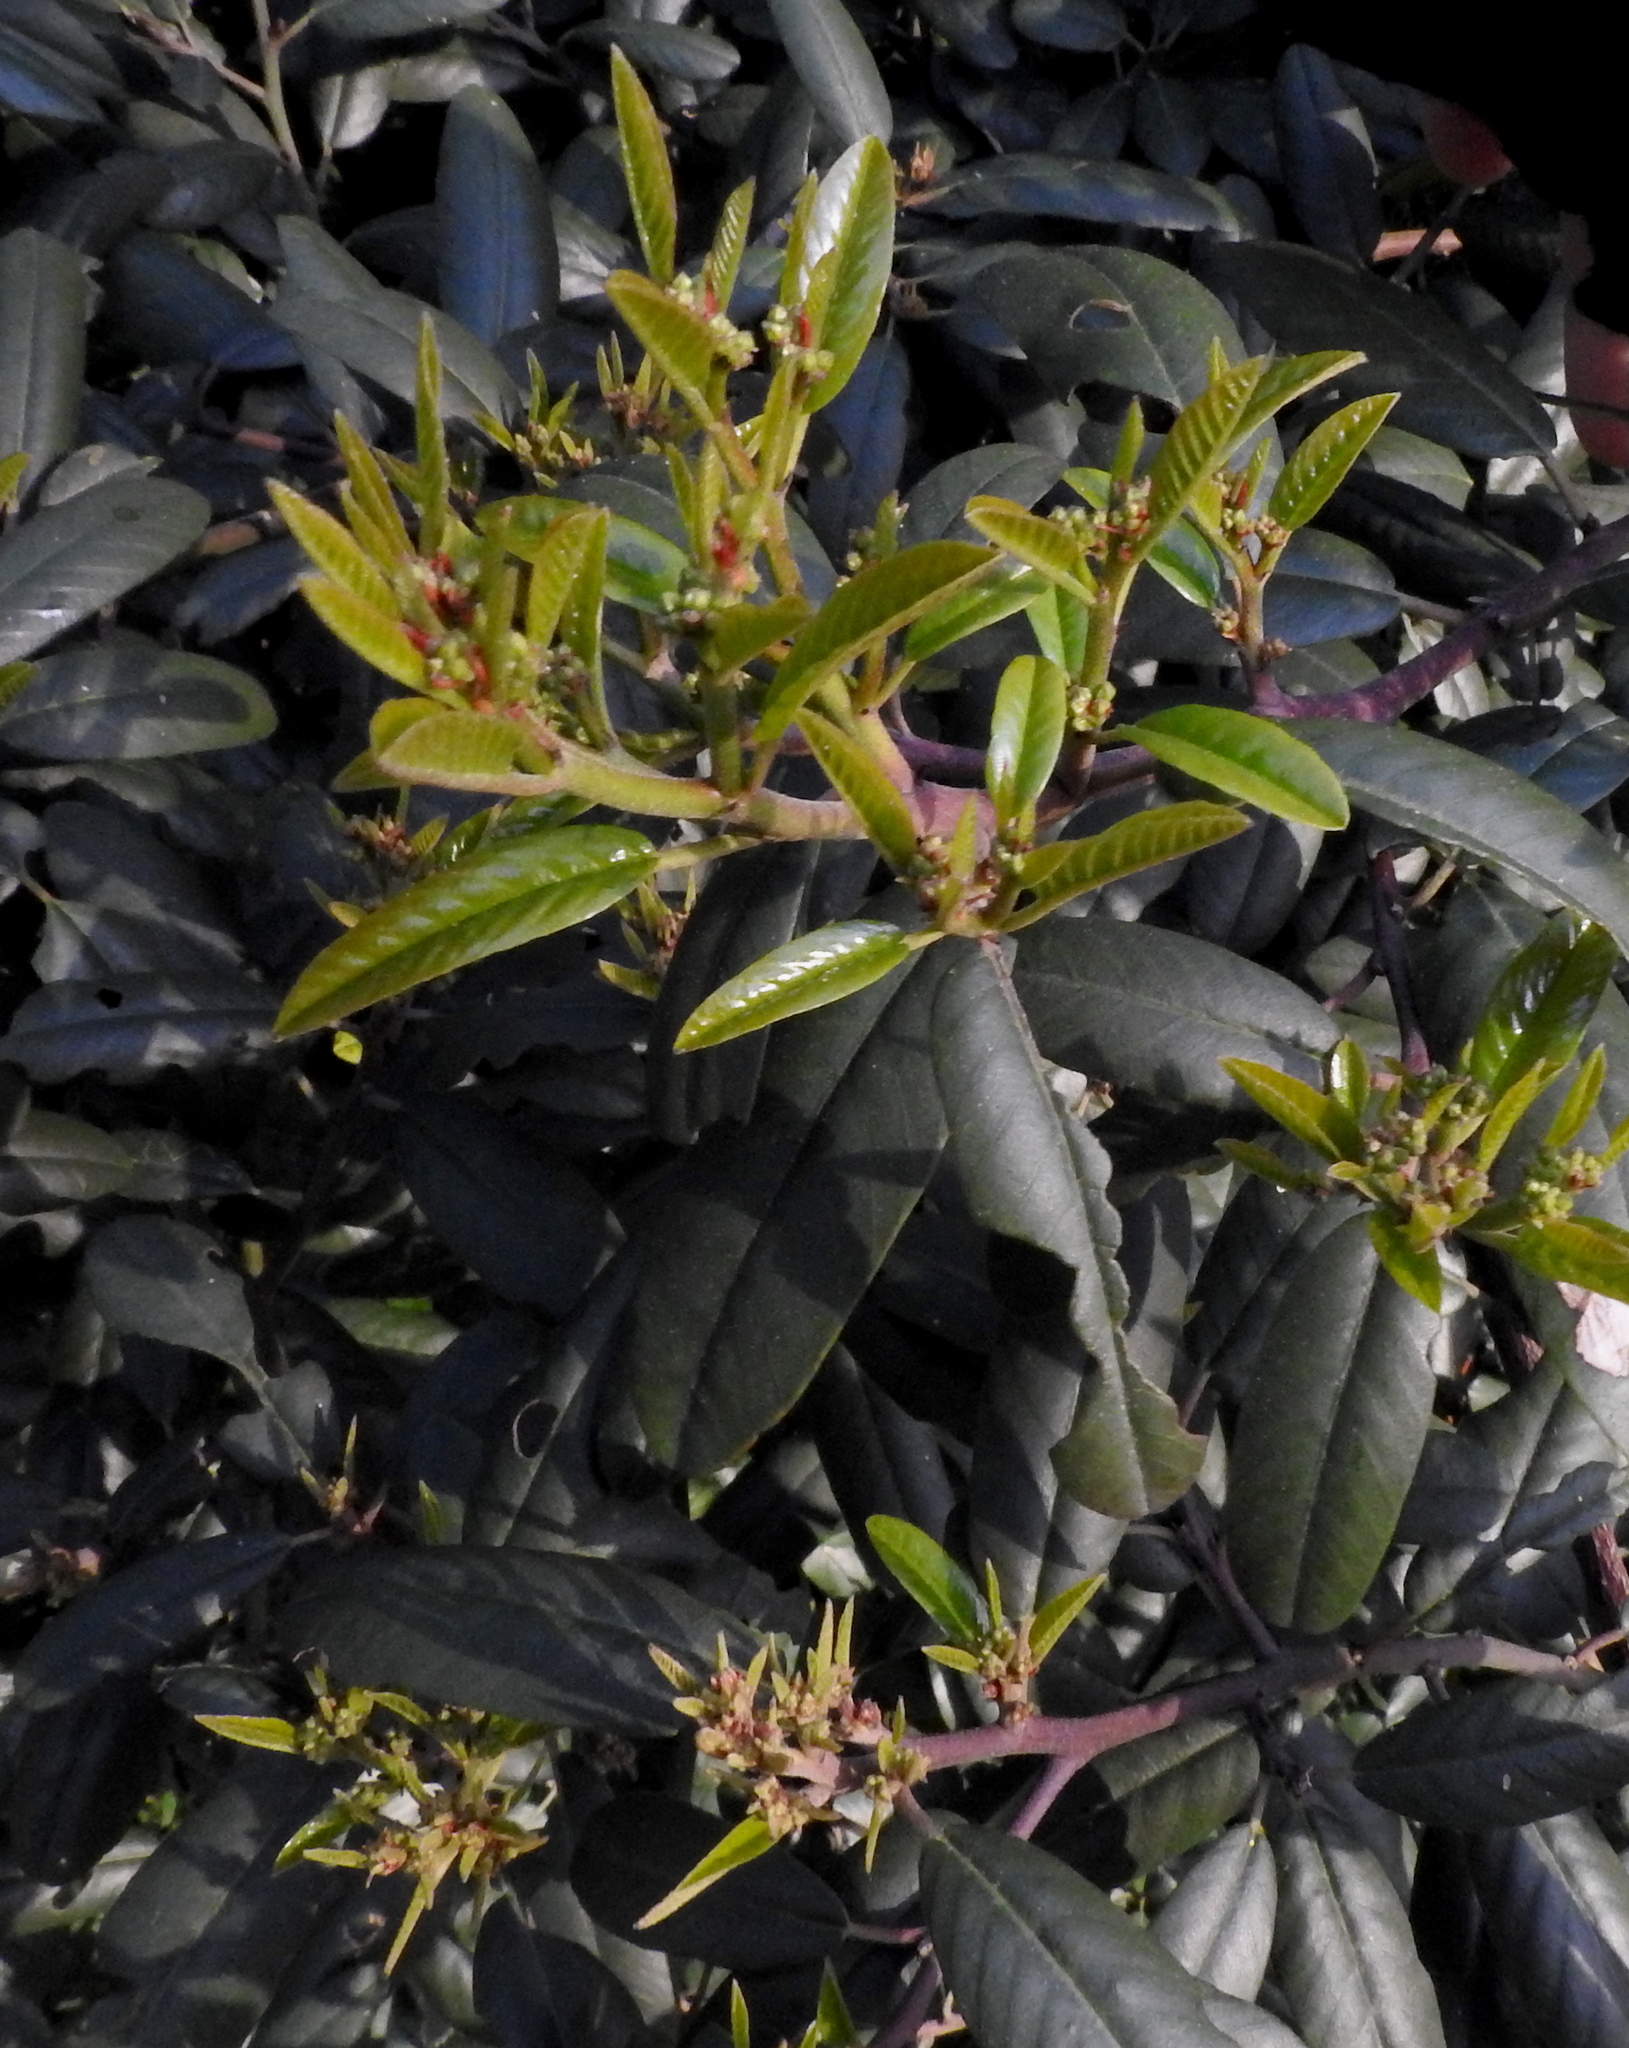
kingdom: Plantae
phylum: Tracheophyta
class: Magnoliopsida
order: Rosales
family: Rhamnaceae
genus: Frangula
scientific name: Frangula californica
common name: California buckthorn
